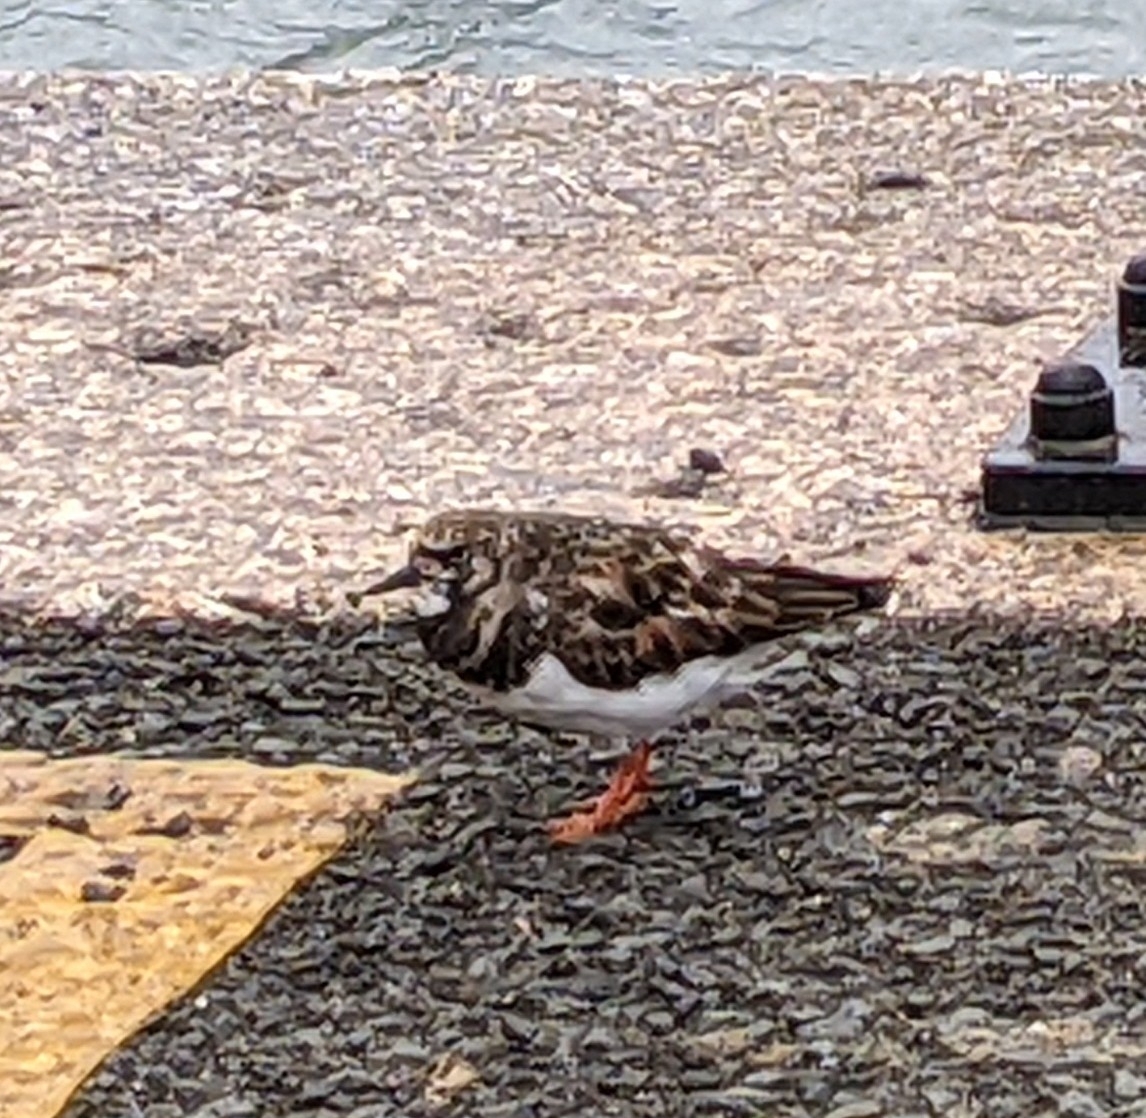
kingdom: Animalia
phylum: Chordata
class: Aves
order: Charadriiformes
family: Scolopacidae
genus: Arenaria
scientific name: Arenaria interpres
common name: Ruddy turnstone
